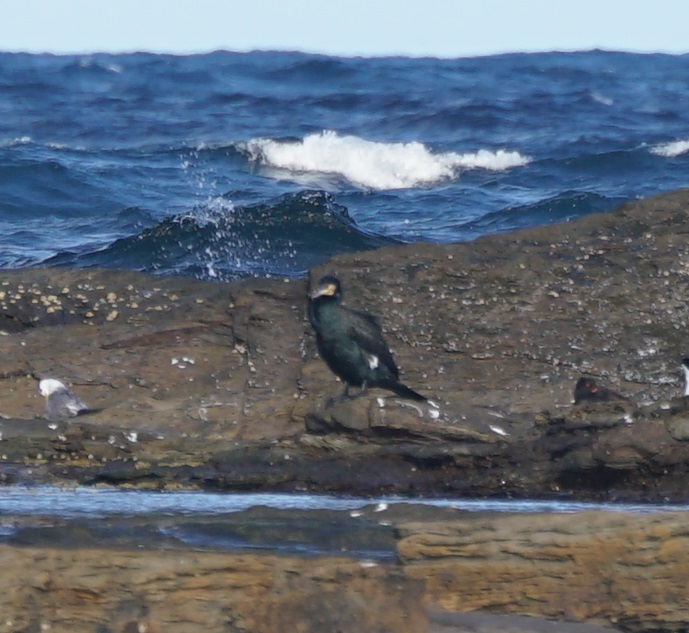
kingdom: Animalia
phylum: Chordata
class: Aves
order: Suliformes
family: Phalacrocoracidae
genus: Phalacrocorax
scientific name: Phalacrocorax carbo
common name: Great cormorant
